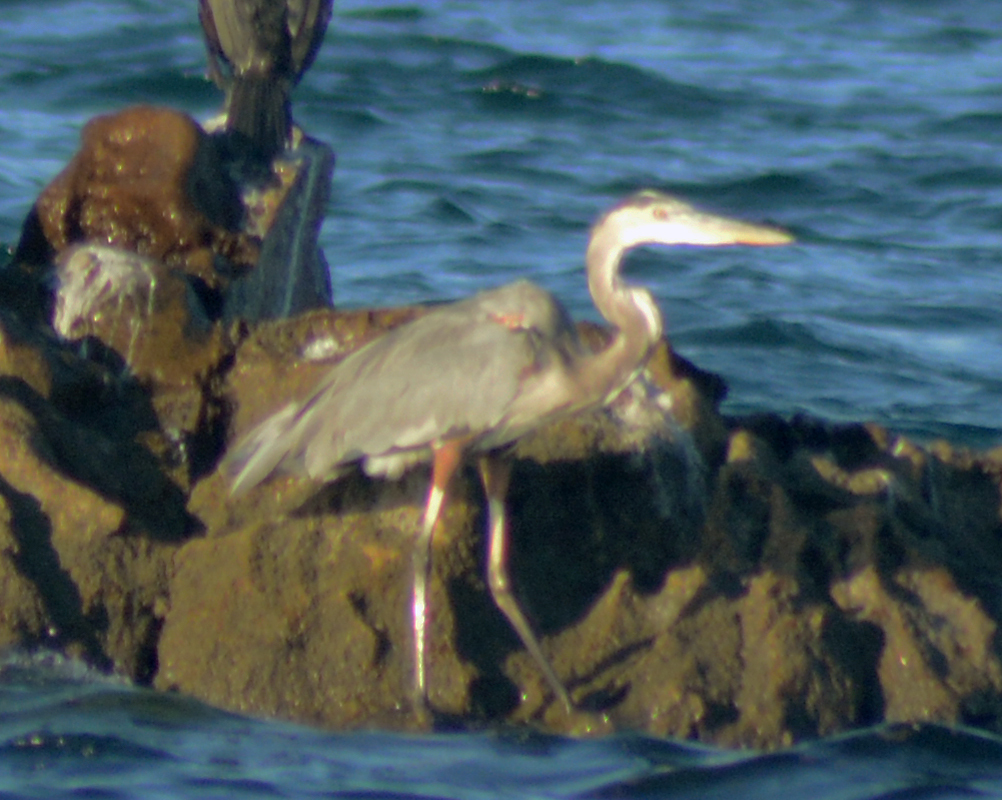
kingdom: Animalia
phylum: Chordata
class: Aves
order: Pelecaniformes
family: Ardeidae
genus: Ardea
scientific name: Ardea herodias
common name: Great blue heron
